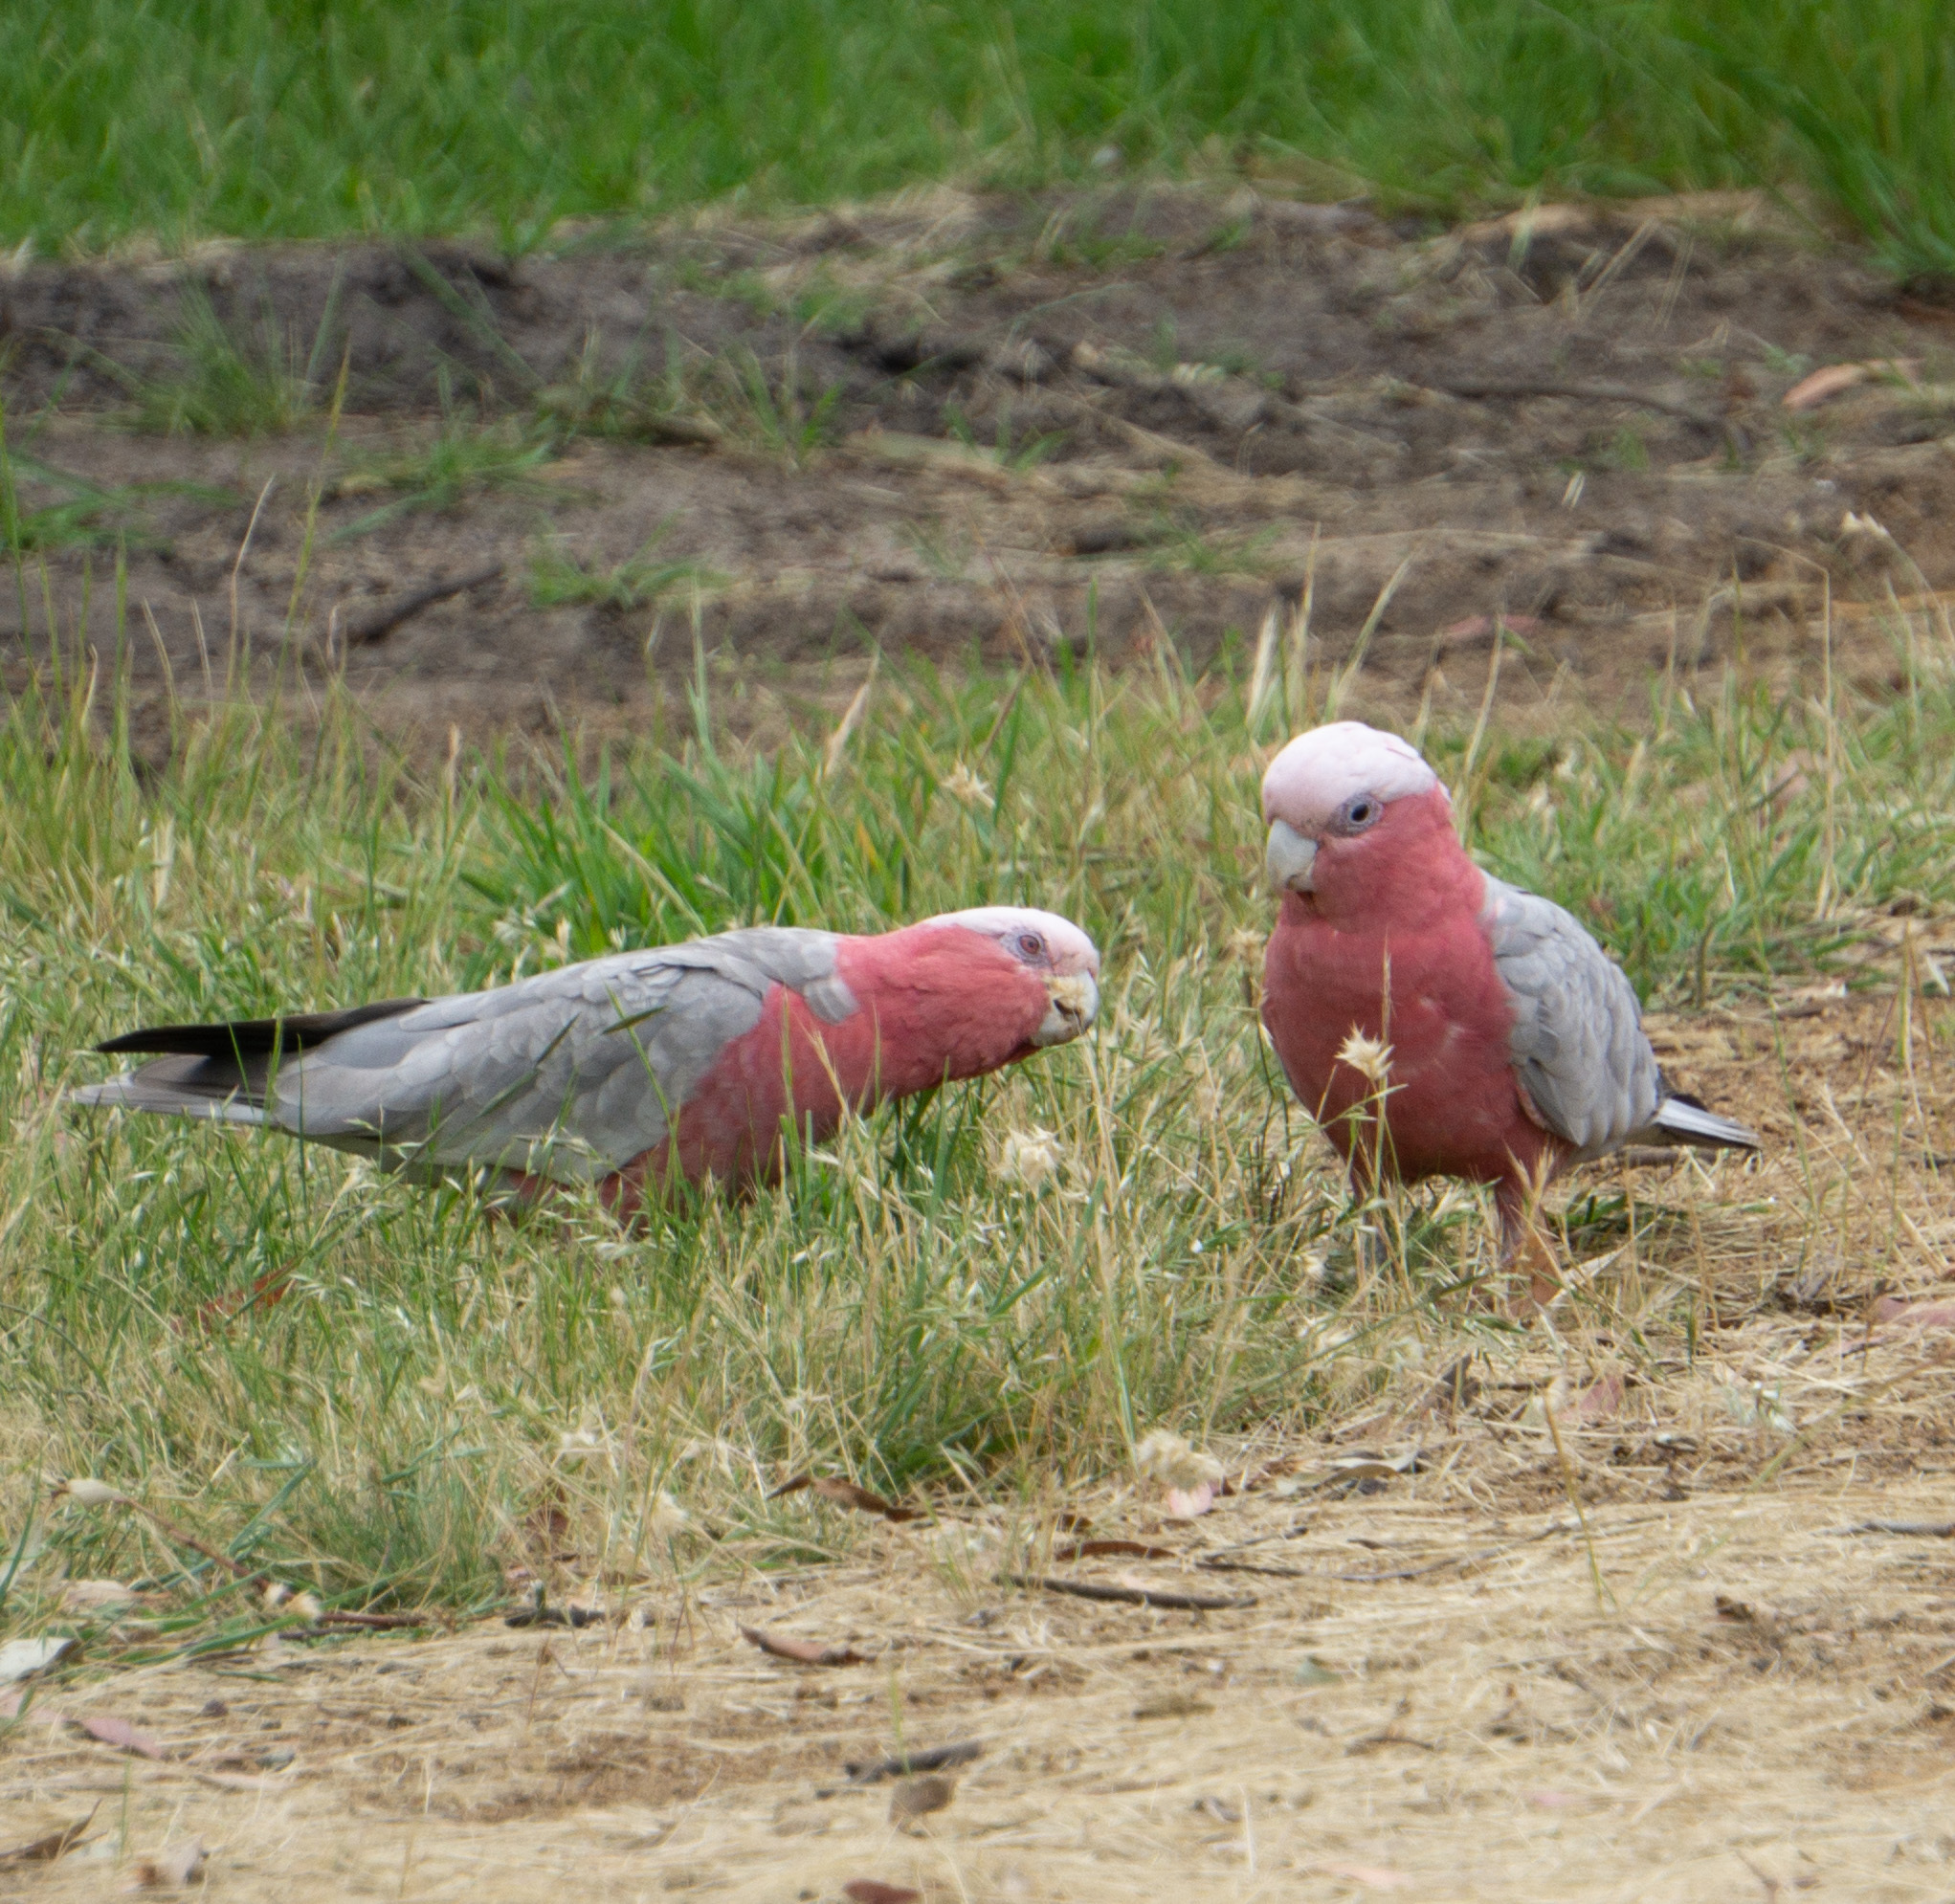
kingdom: Animalia
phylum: Chordata
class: Aves
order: Psittaciformes
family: Psittacidae
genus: Eolophus
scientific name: Eolophus roseicapilla
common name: Galah
